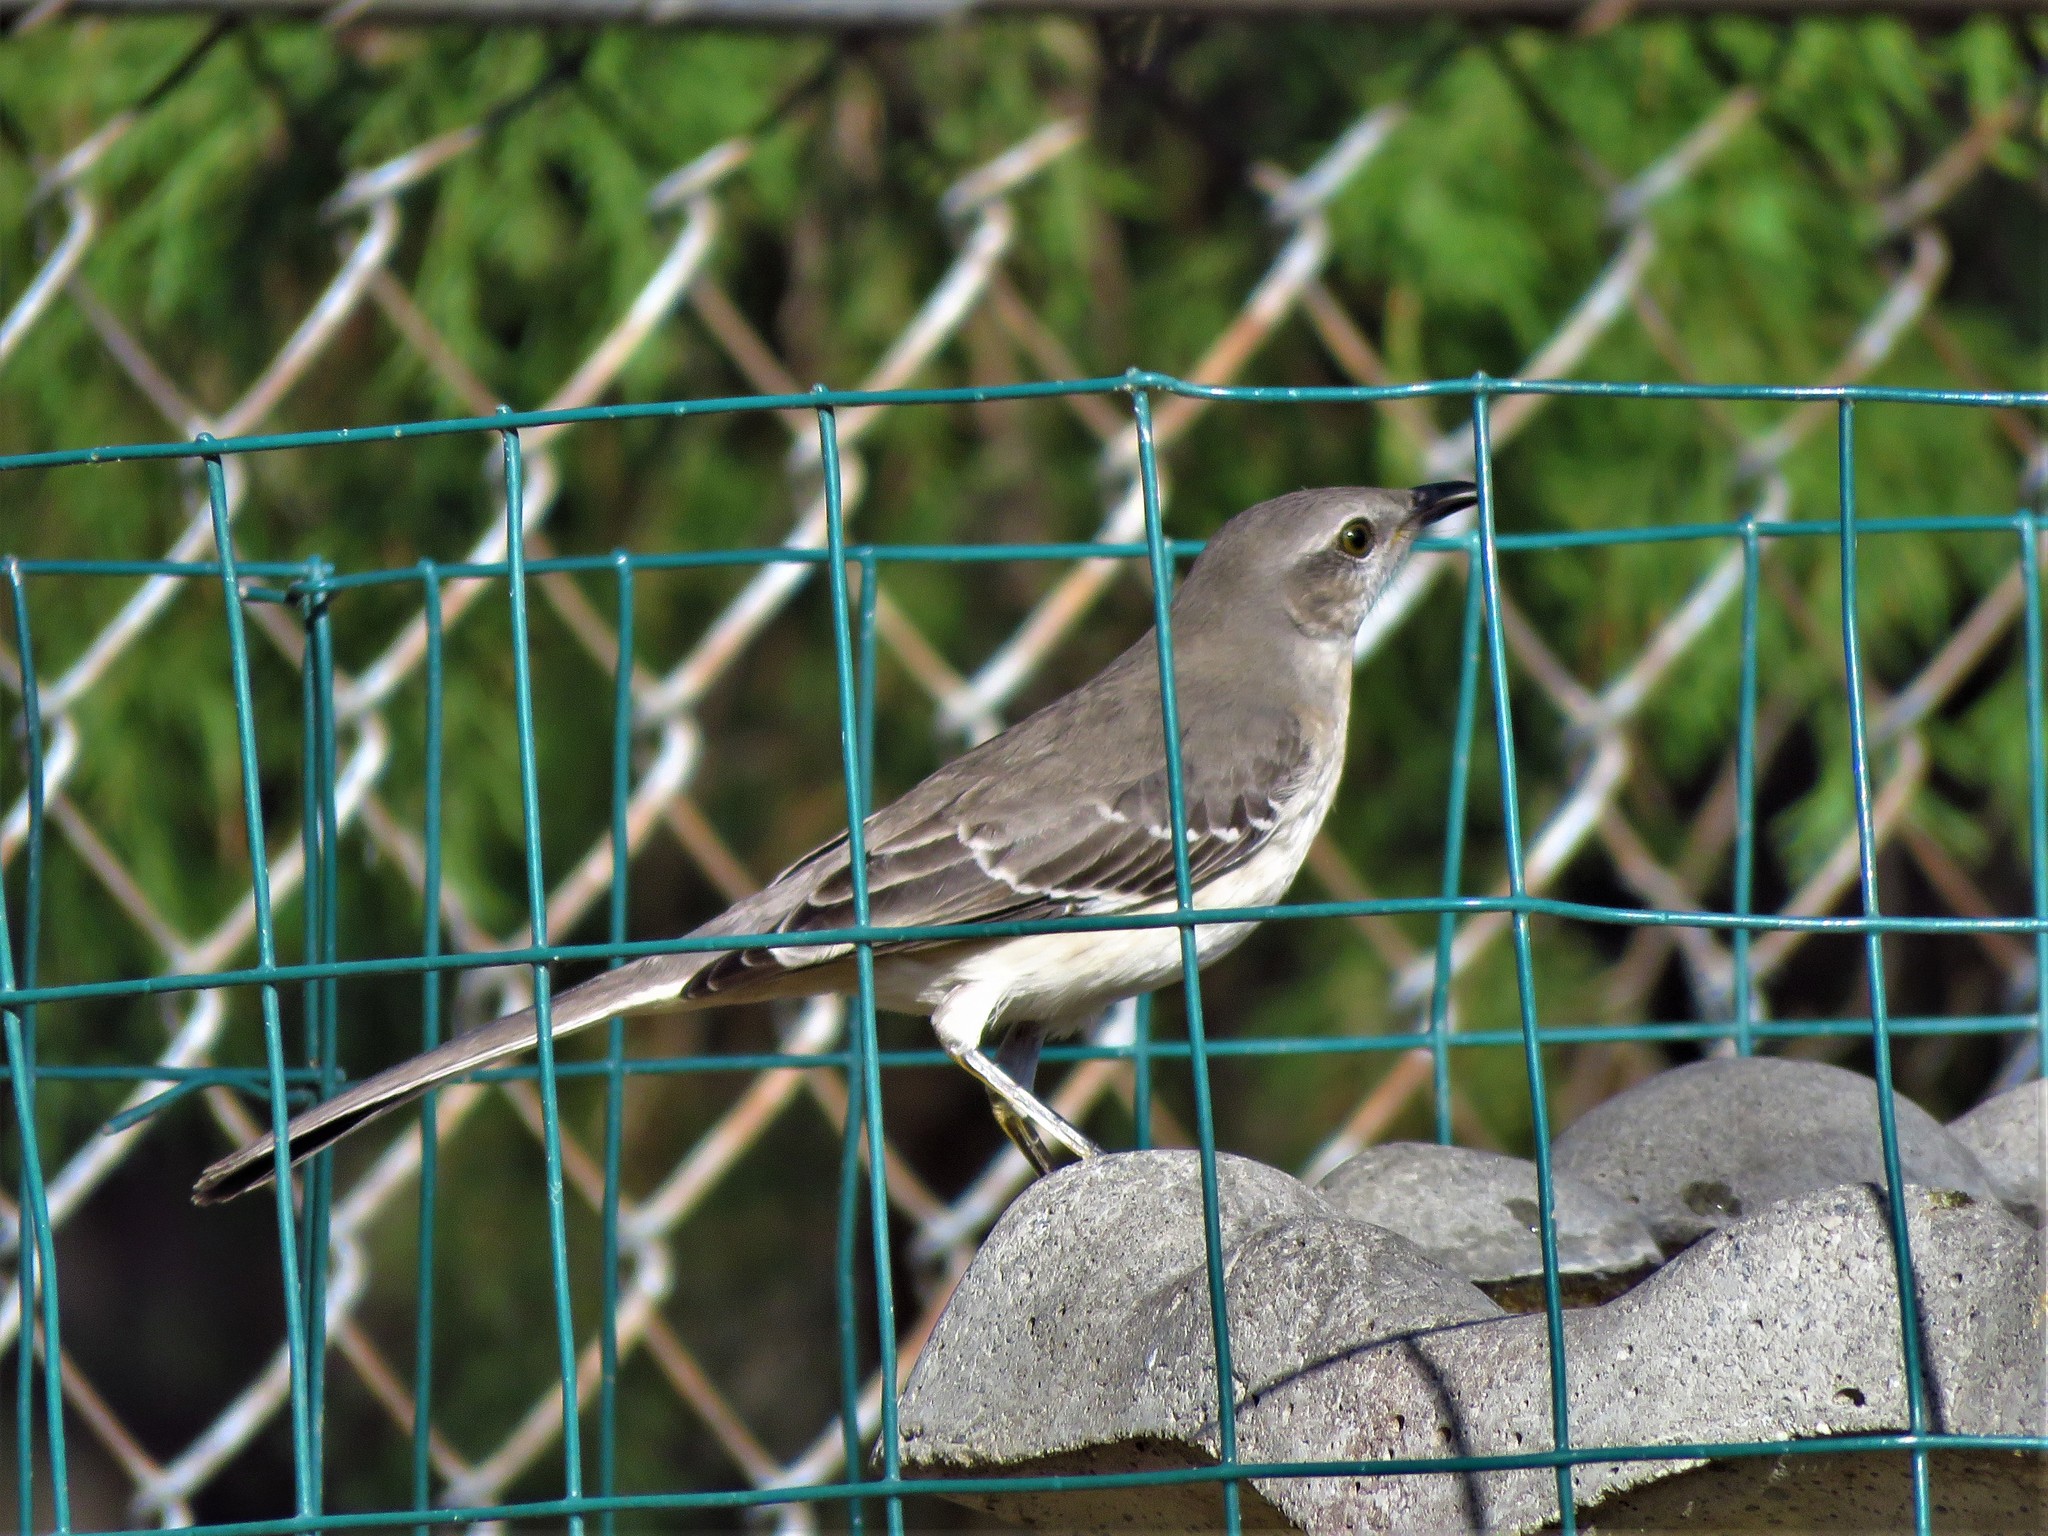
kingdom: Animalia
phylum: Chordata
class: Aves
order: Passeriformes
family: Mimidae
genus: Mimus
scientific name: Mimus polyglottos
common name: Northern mockingbird
